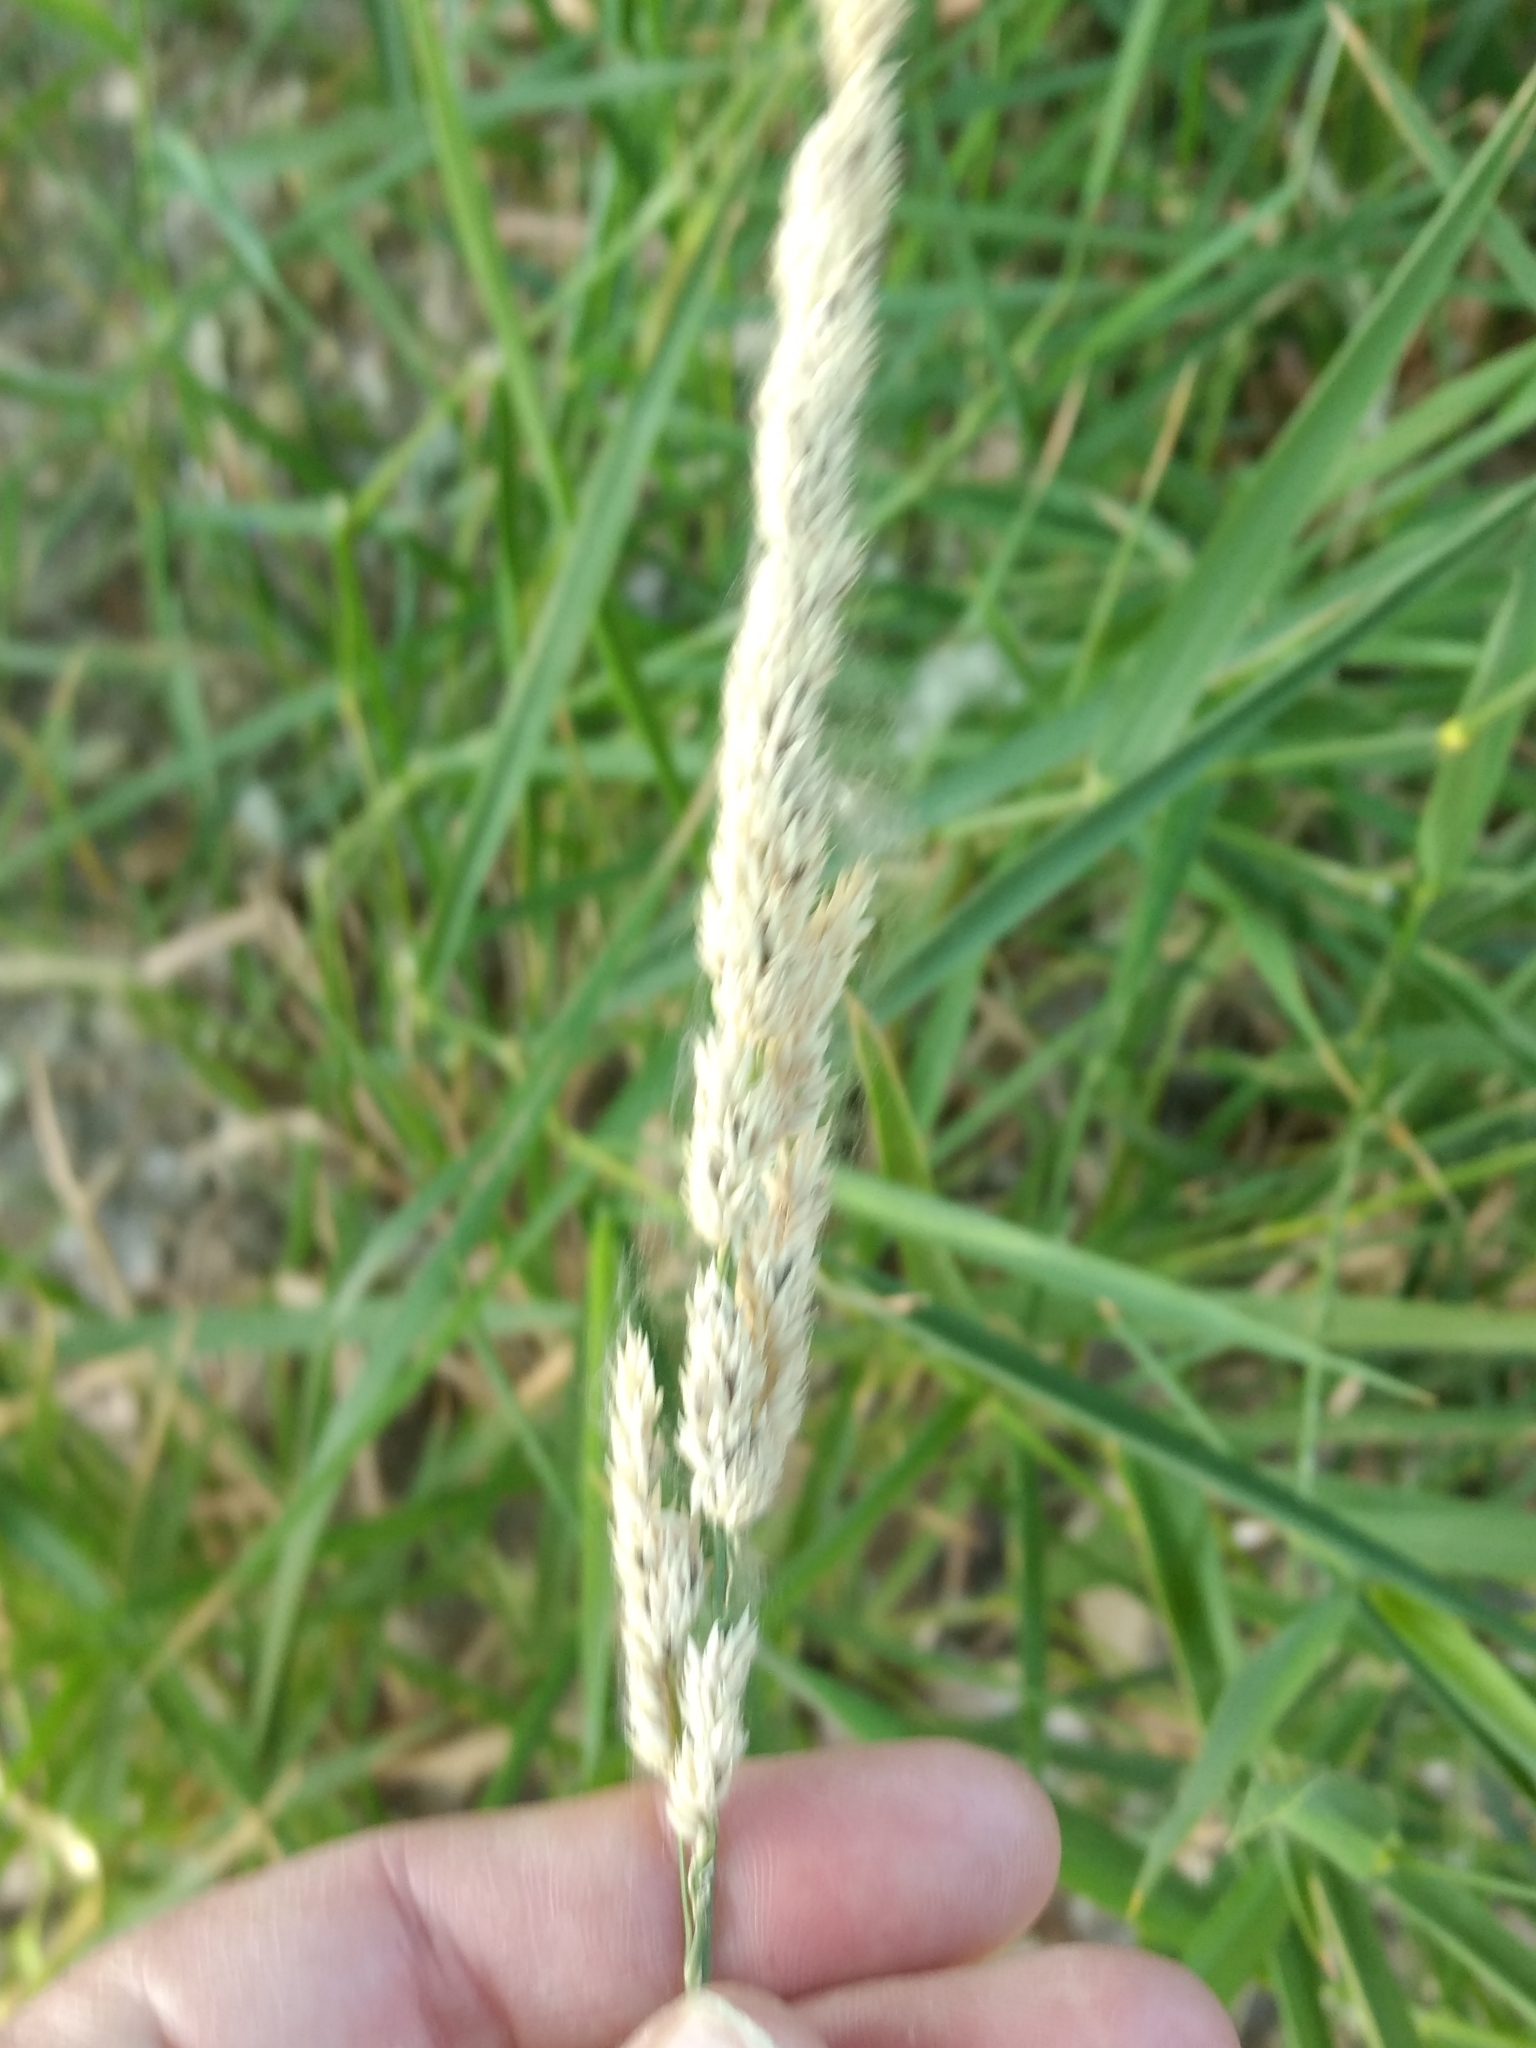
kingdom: Plantae
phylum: Tracheophyta
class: Liliopsida
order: Poales
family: Poaceae
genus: Phalaris
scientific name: Phalaris arundinacea
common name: Reed canary-grass
